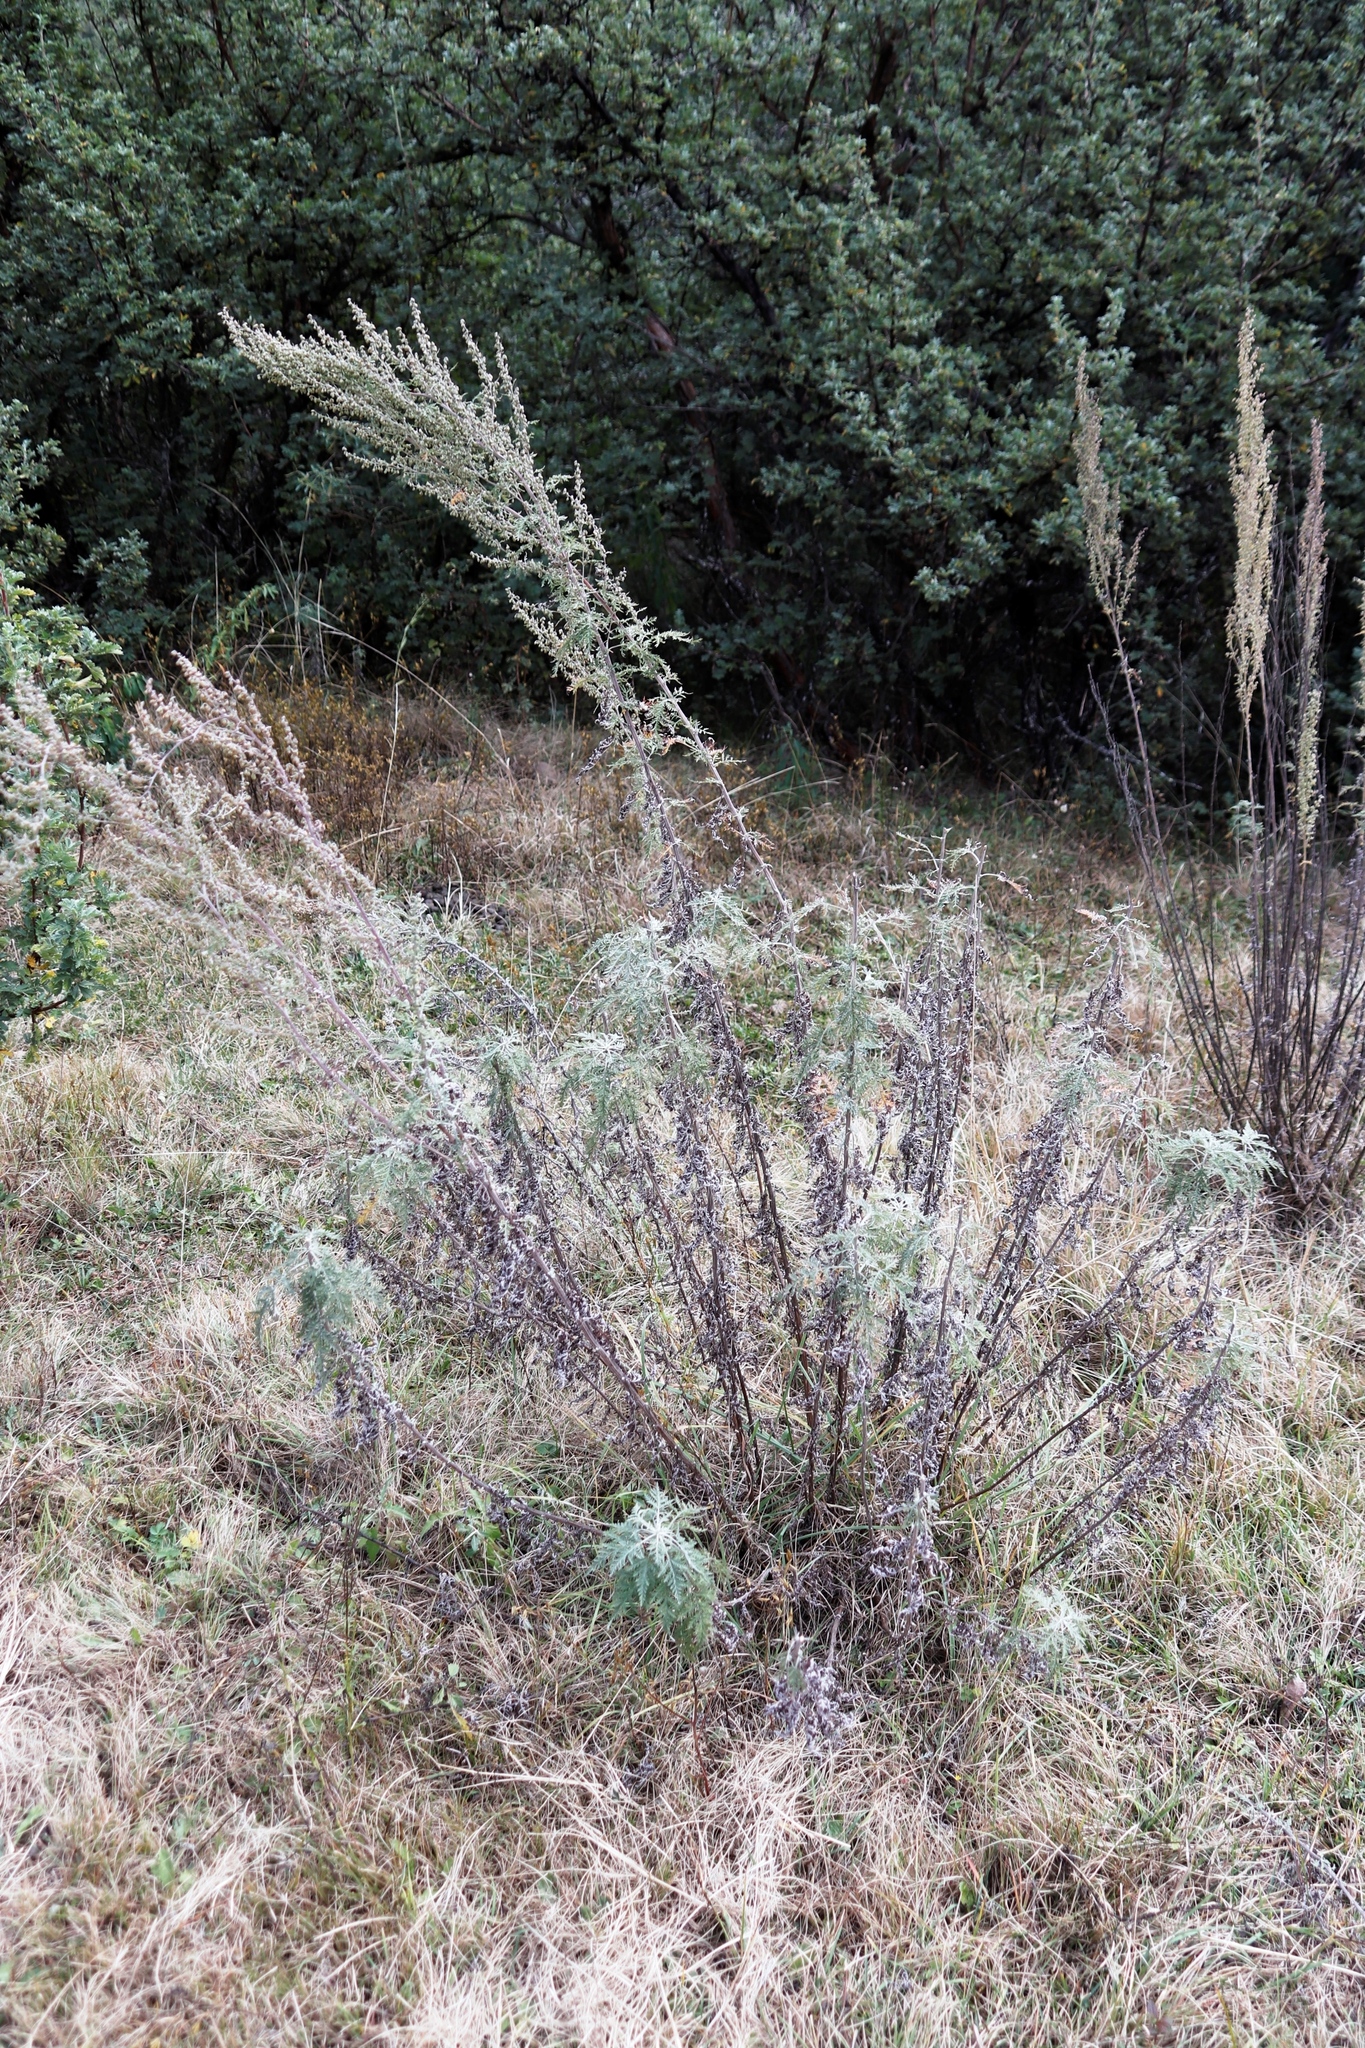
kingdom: Plantae
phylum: Tracheophyta
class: Magnoliopsida
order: Asterales
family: Asteraceae
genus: Artemisia
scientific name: Artemisia afra
